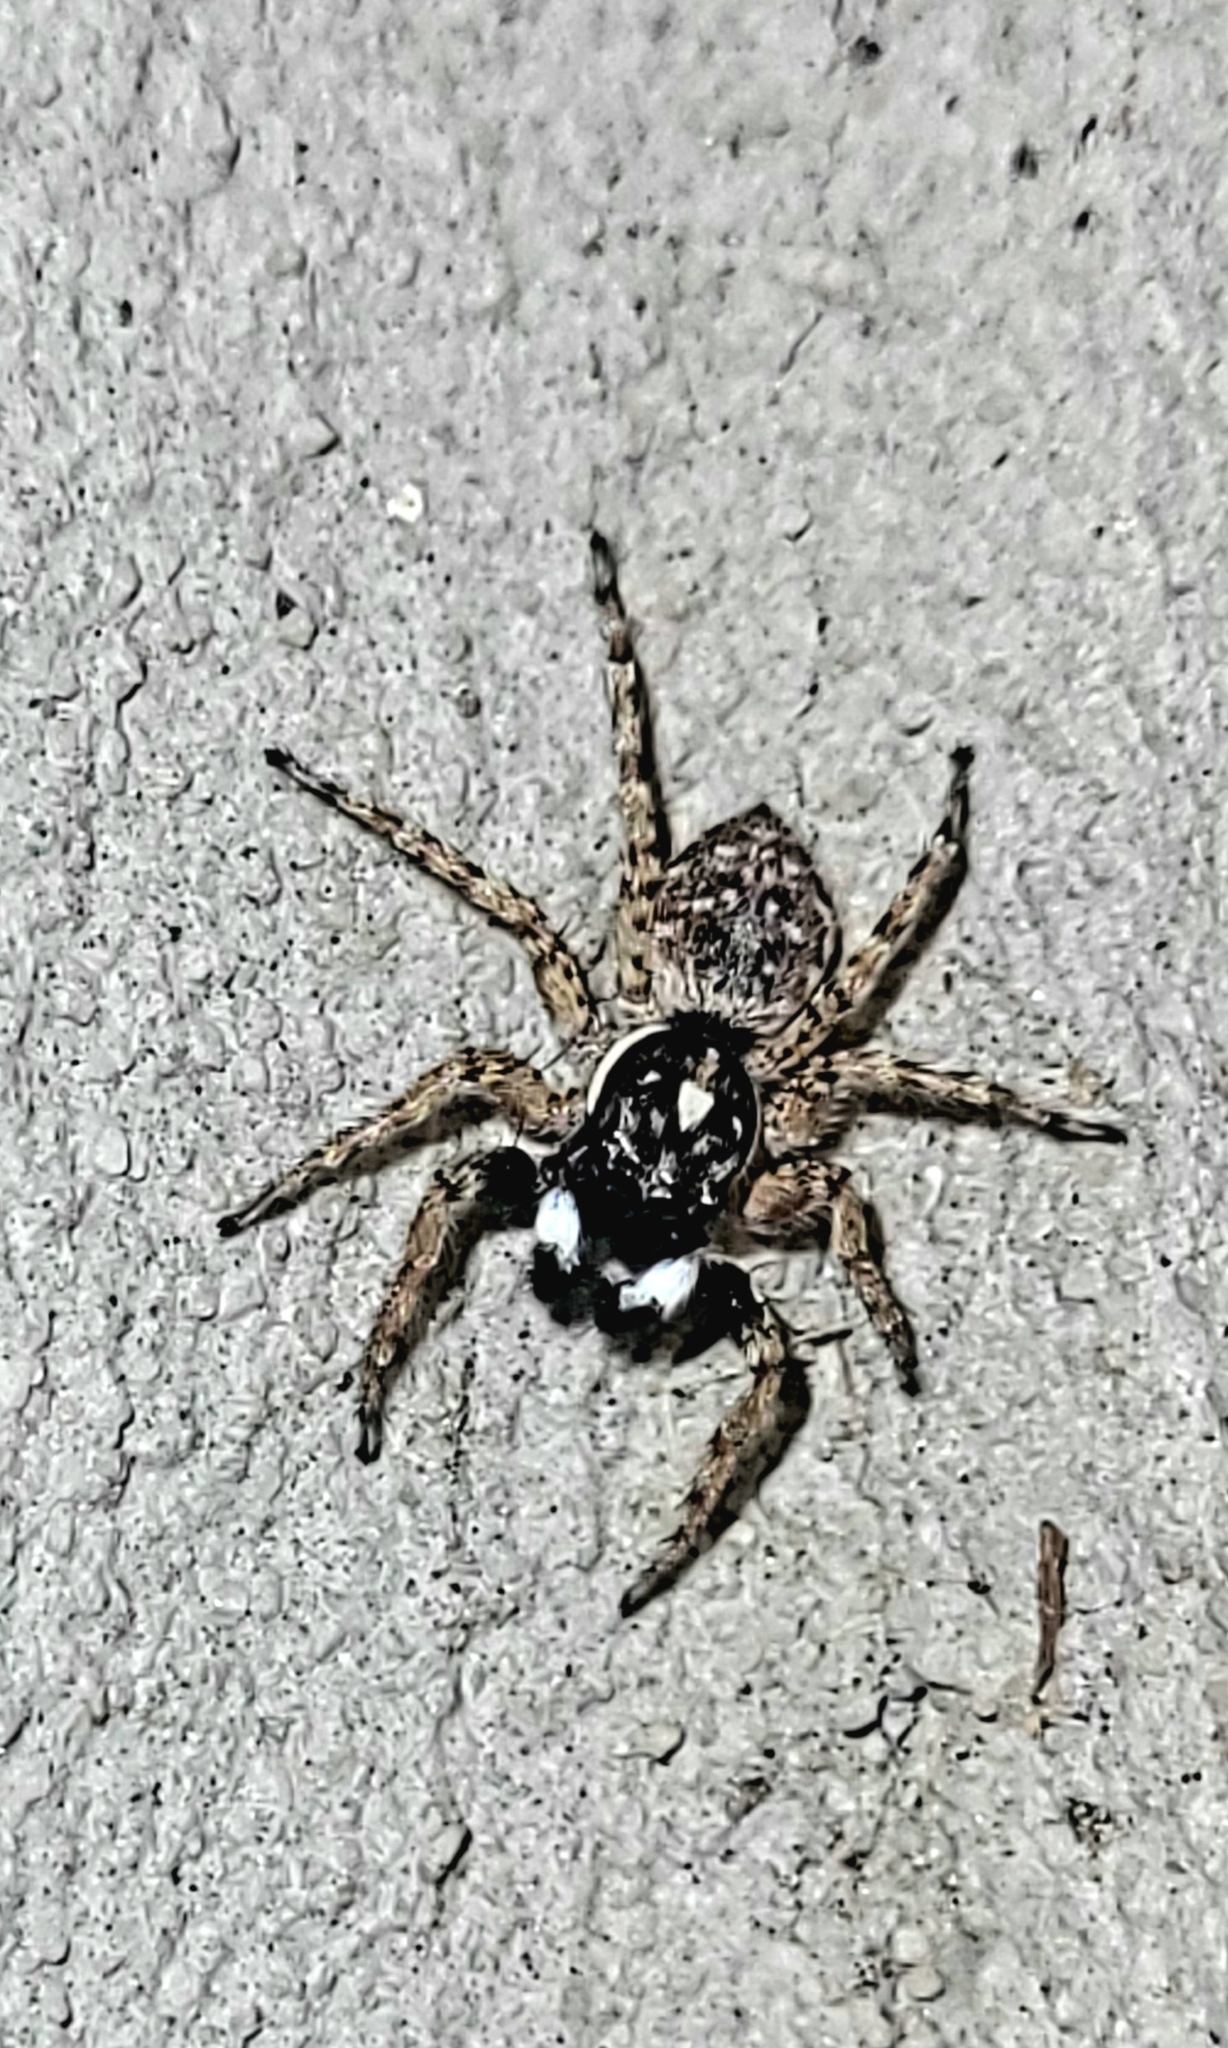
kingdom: Animalia
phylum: Arthropoda
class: Arachnida
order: Araneae
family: Salticidae
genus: Menemerus
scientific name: Menemerus semilimbatus
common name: Jumping spider
